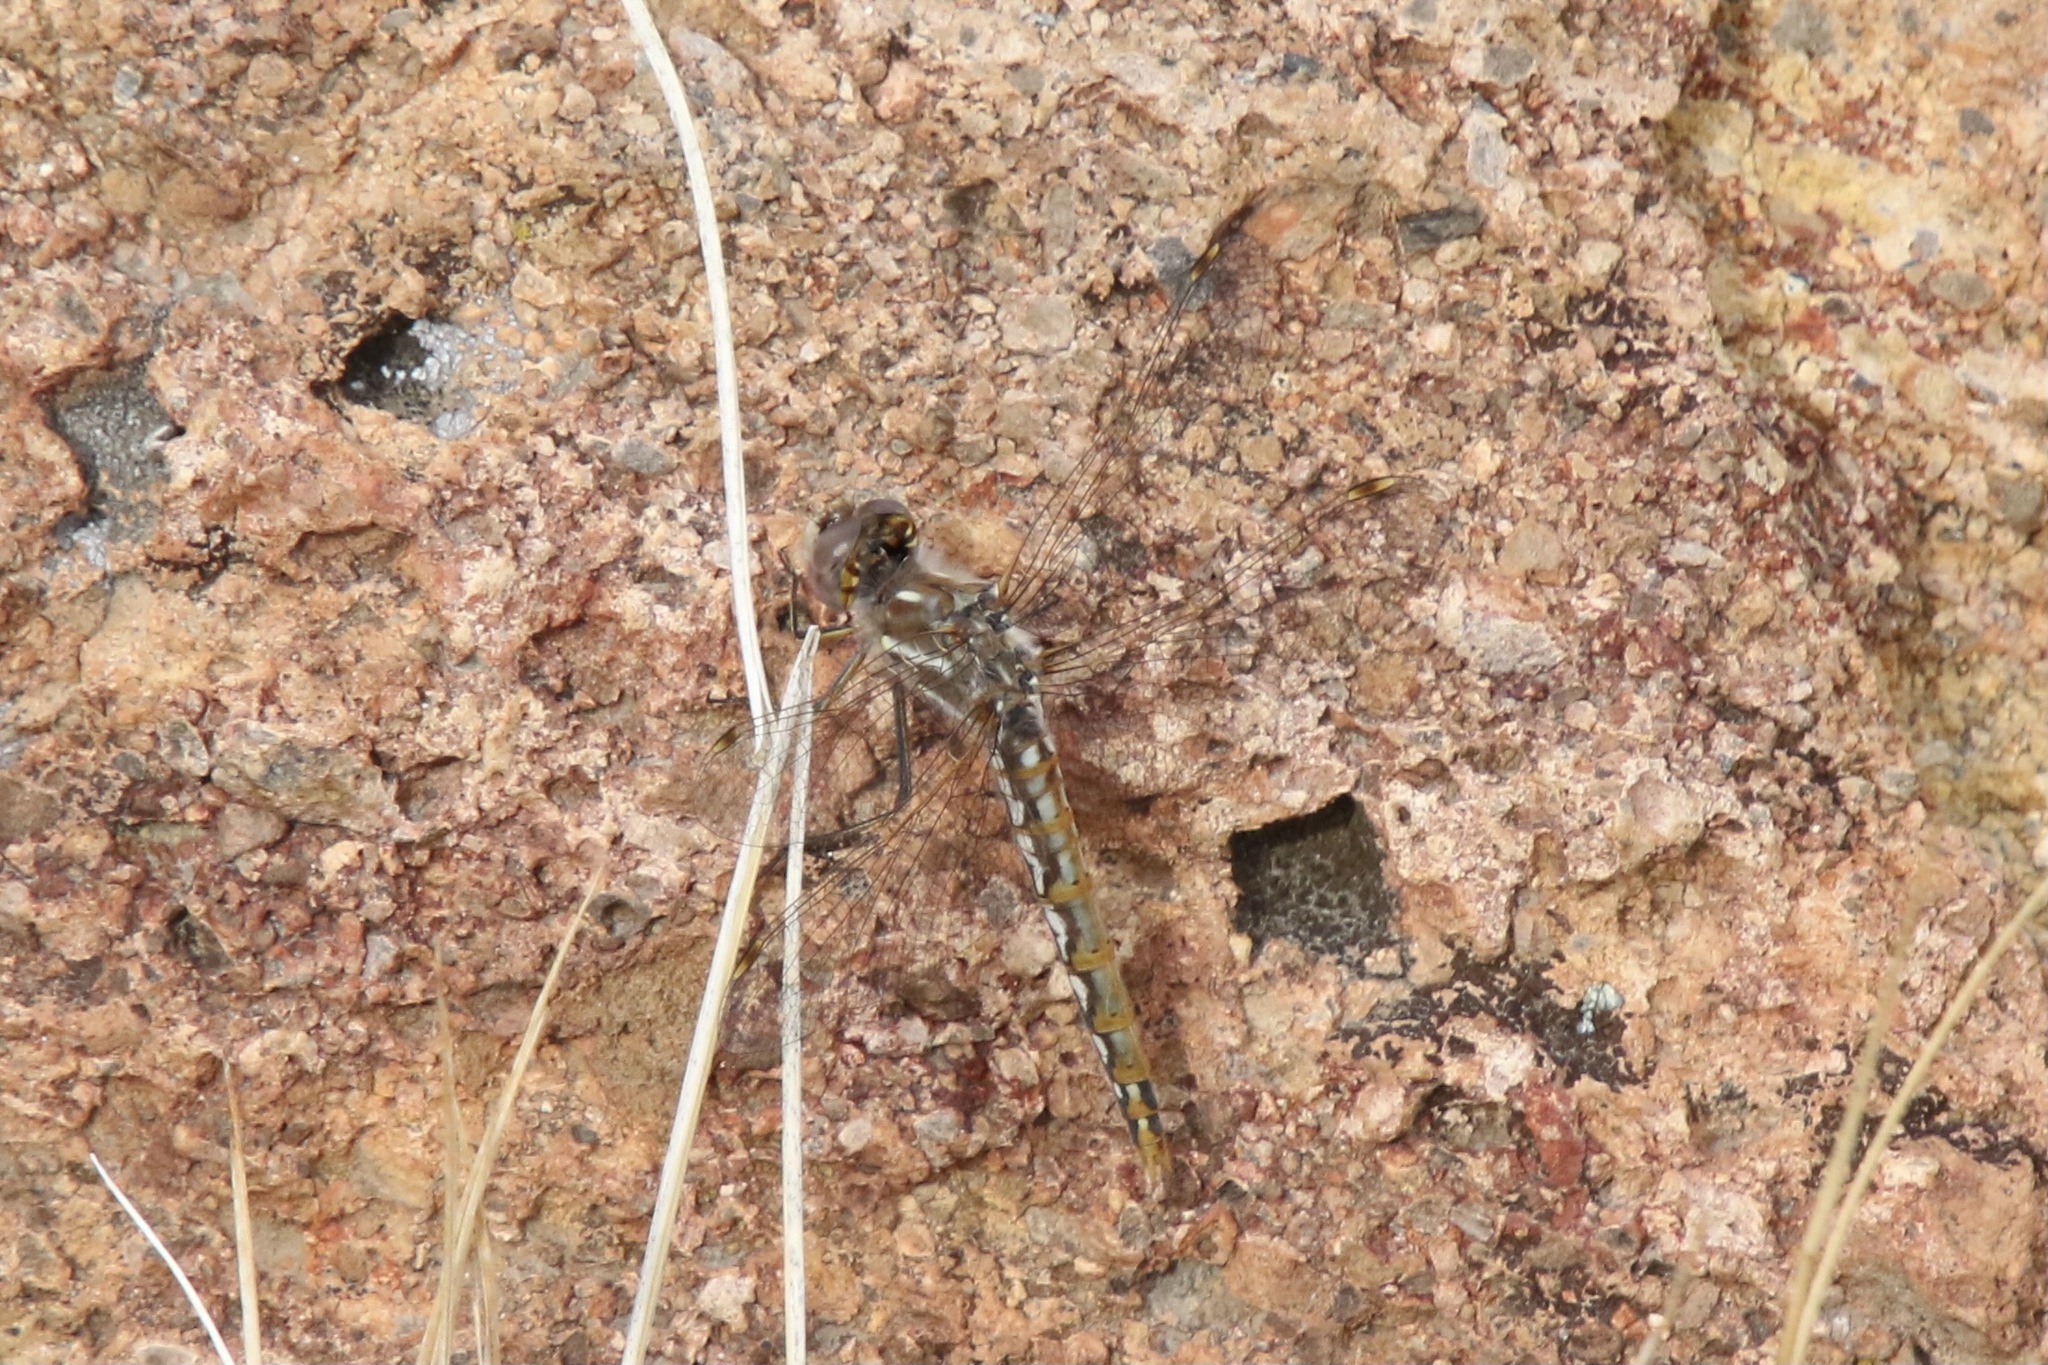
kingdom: Animalia
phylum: Arthropoda
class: Insecta
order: Odonata
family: Libellulidae
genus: Sympetrum
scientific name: Sympetrum corruptum
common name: Variegated meadowhawk
